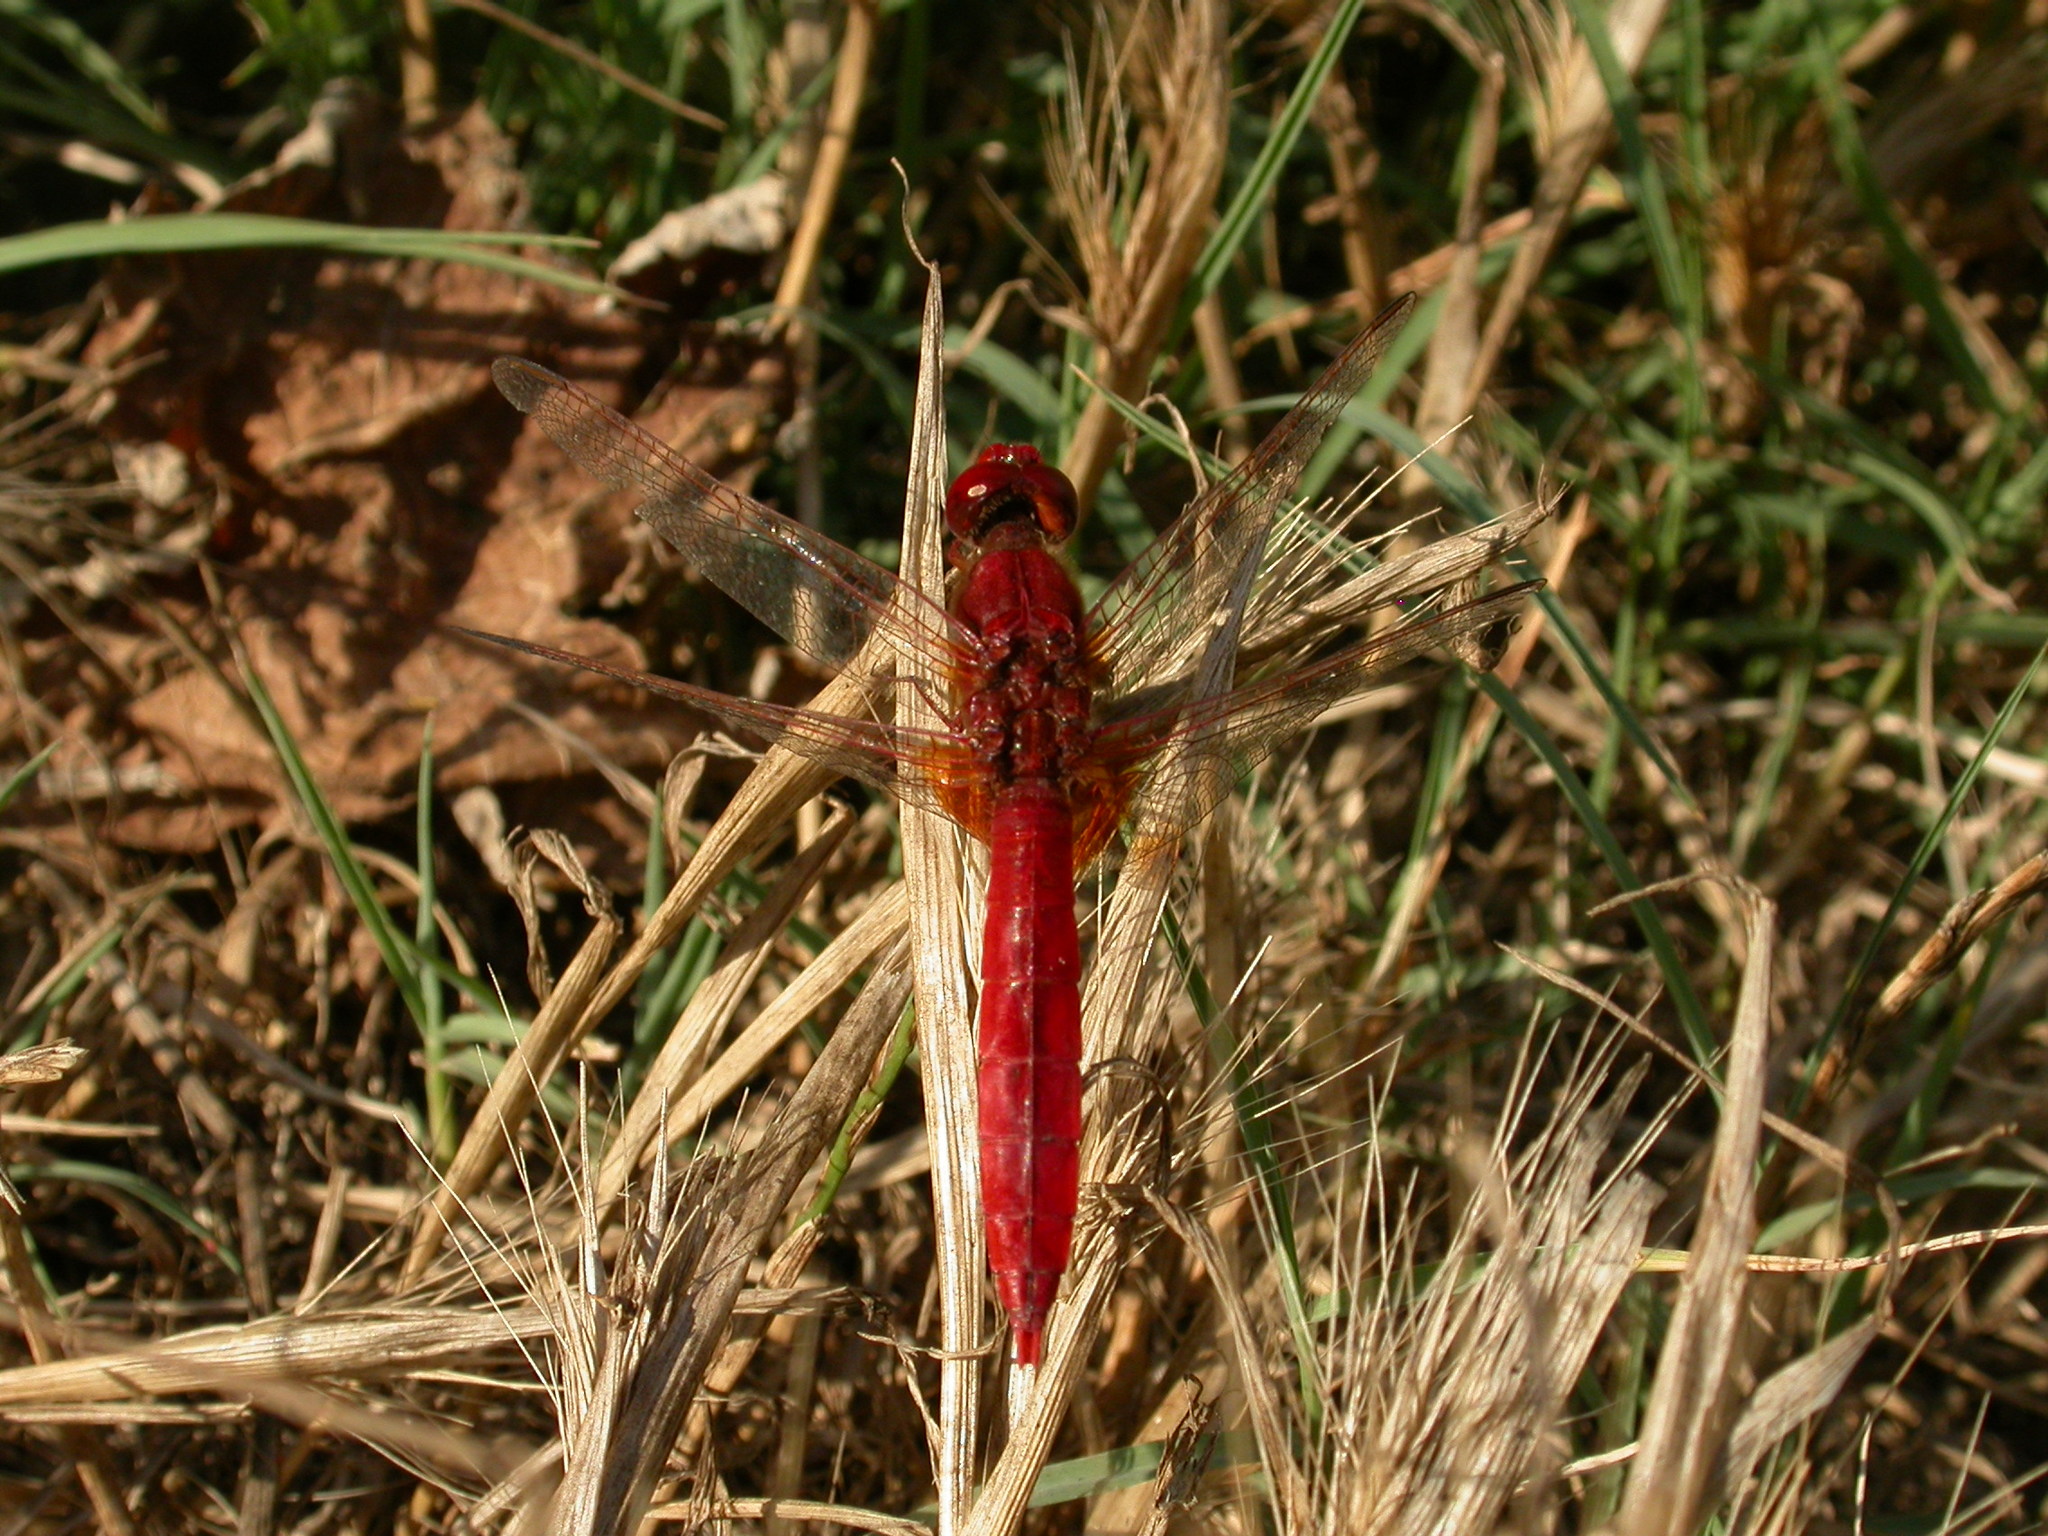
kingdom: Animalia
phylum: Arthropoda
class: Insecta
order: Odonata
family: Libellulidae
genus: Crocothemis
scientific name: Crocothemis erythraea
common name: Scarlet dragonfly
